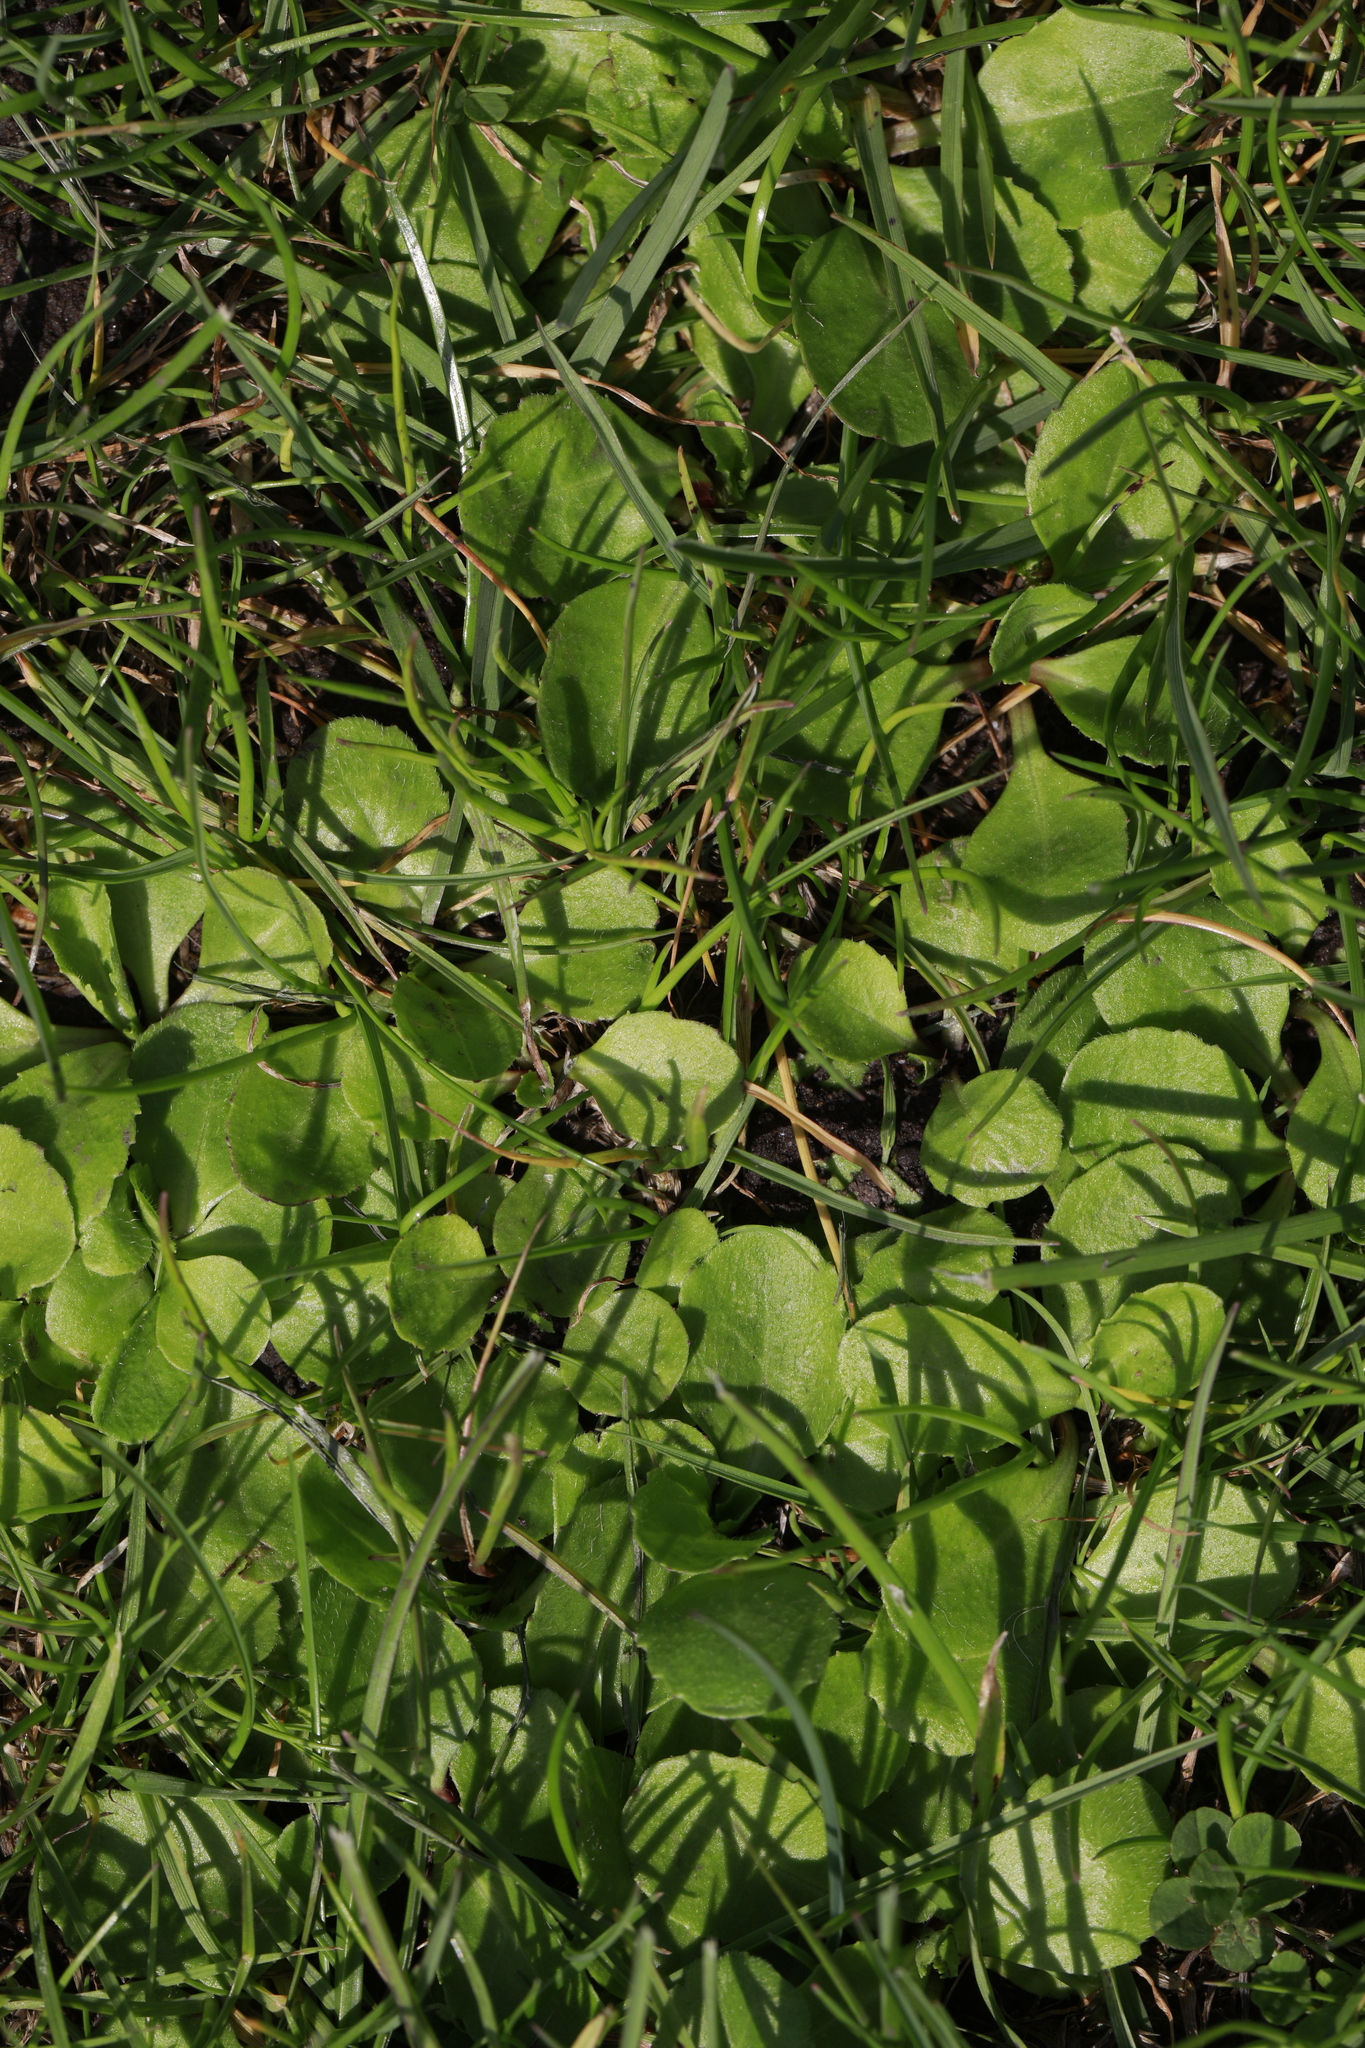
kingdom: Plantae
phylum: Tracheophyta
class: Magnoliopsida
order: Asterales
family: Asteraceae
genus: Bellis
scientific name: Bellis perennis
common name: Lawndaisy
